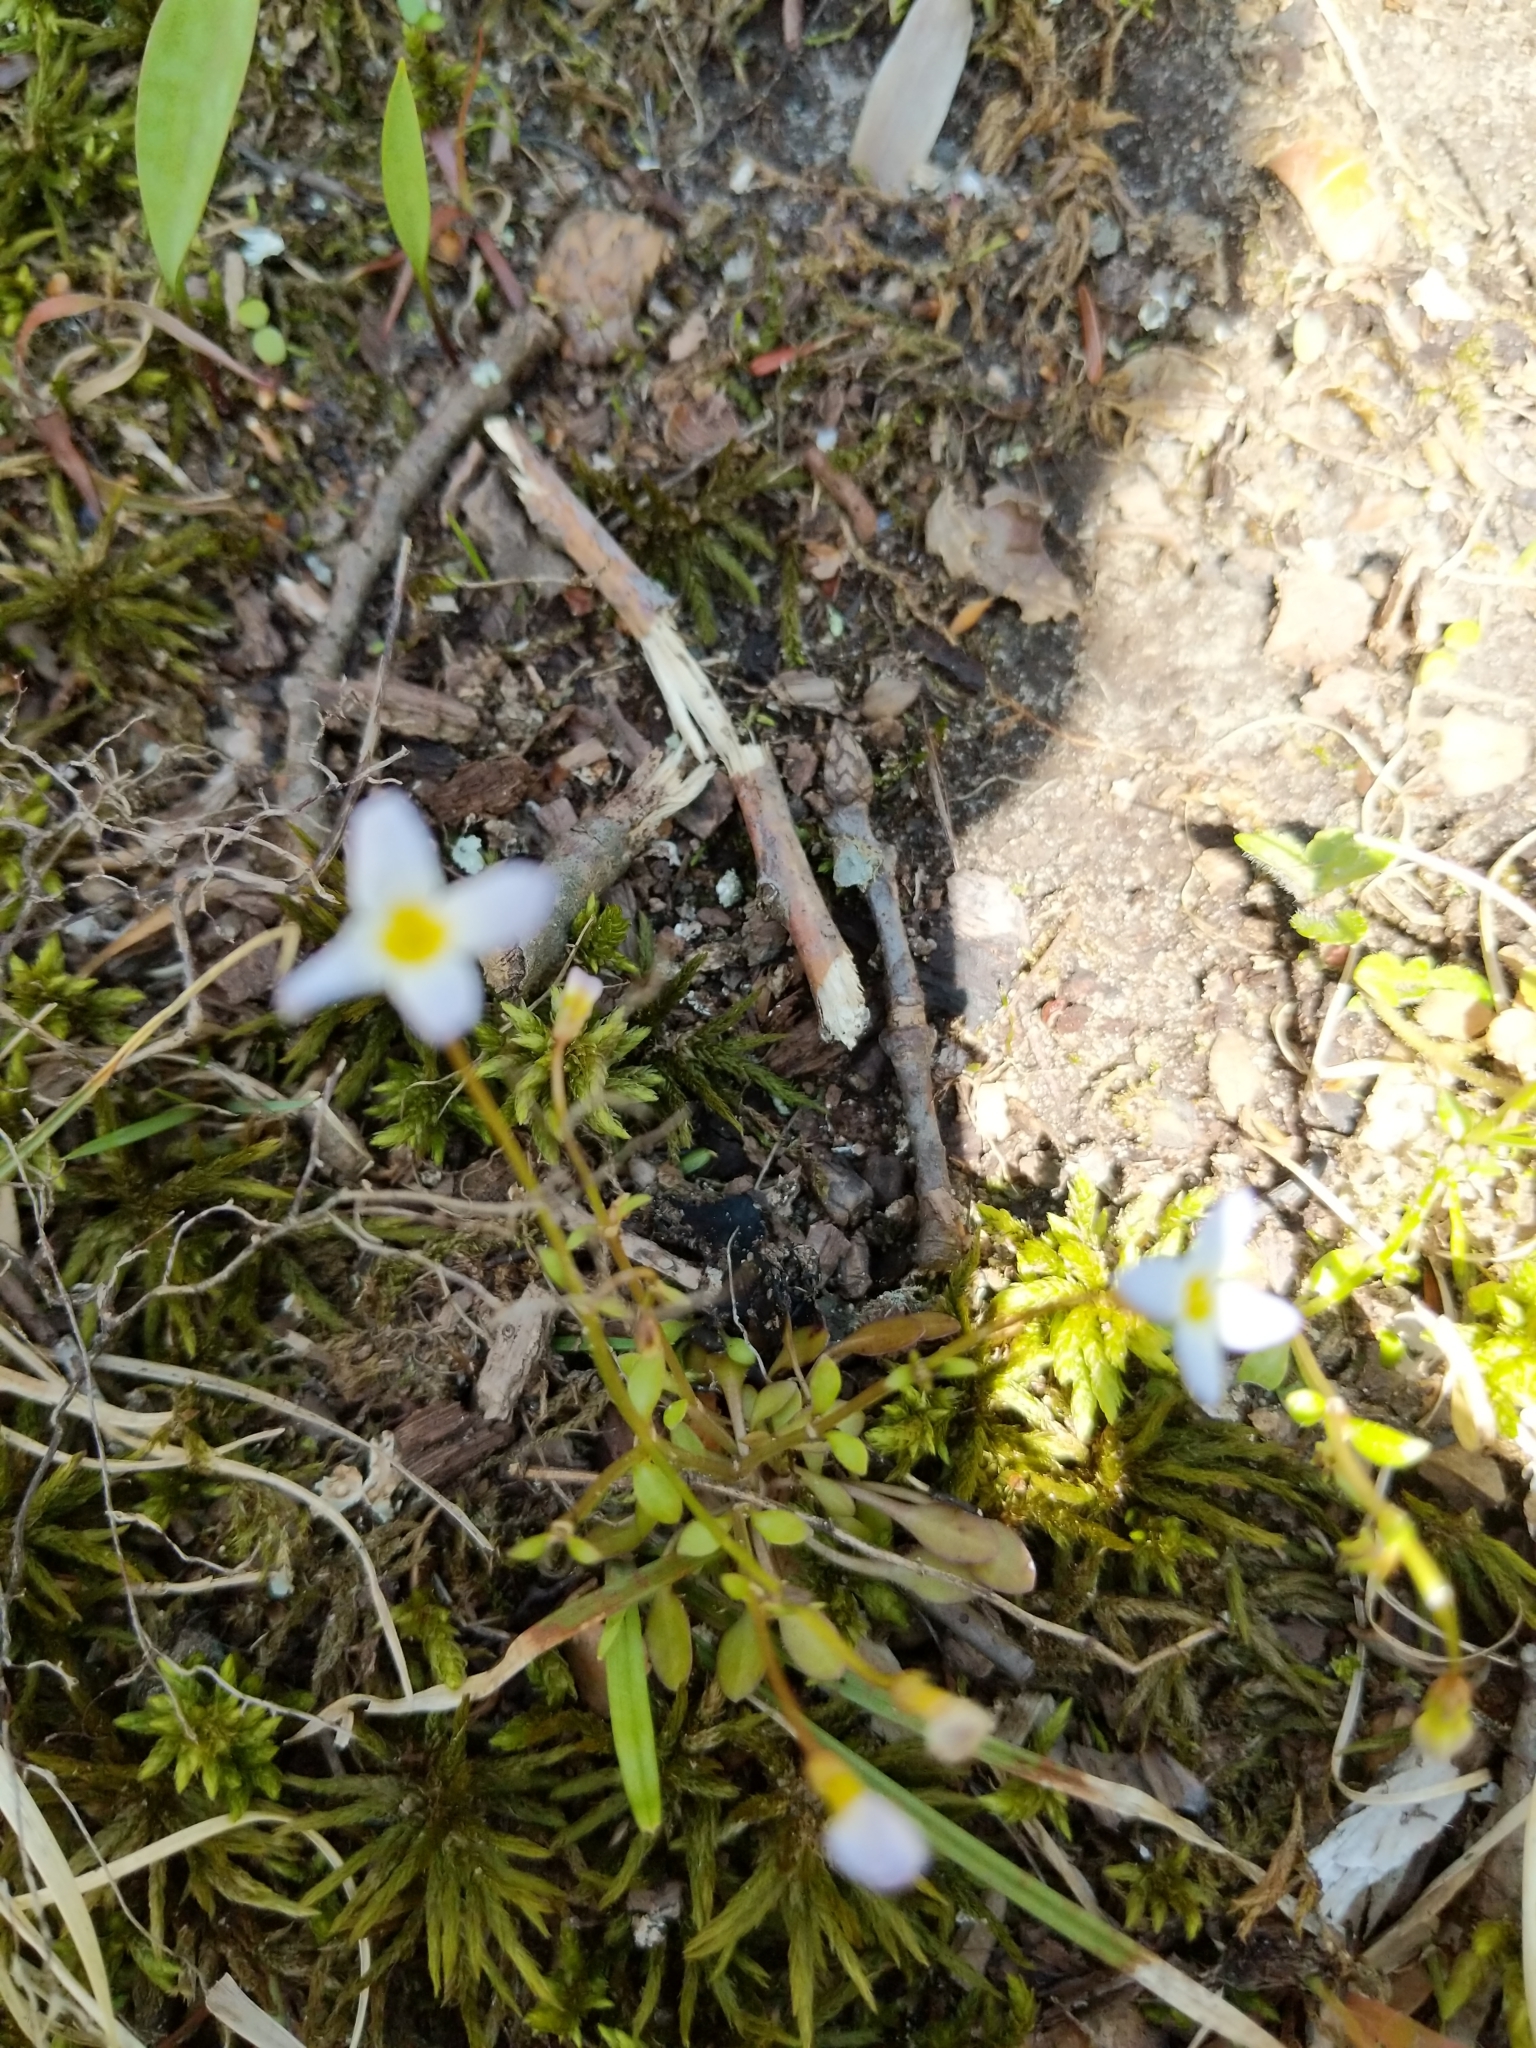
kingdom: Plantae
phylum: Tracheophyta
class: Magnoliopsida
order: Gentianales
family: Rubiaceae
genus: Houstonia
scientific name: Houstonia caerulea
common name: Bluets
